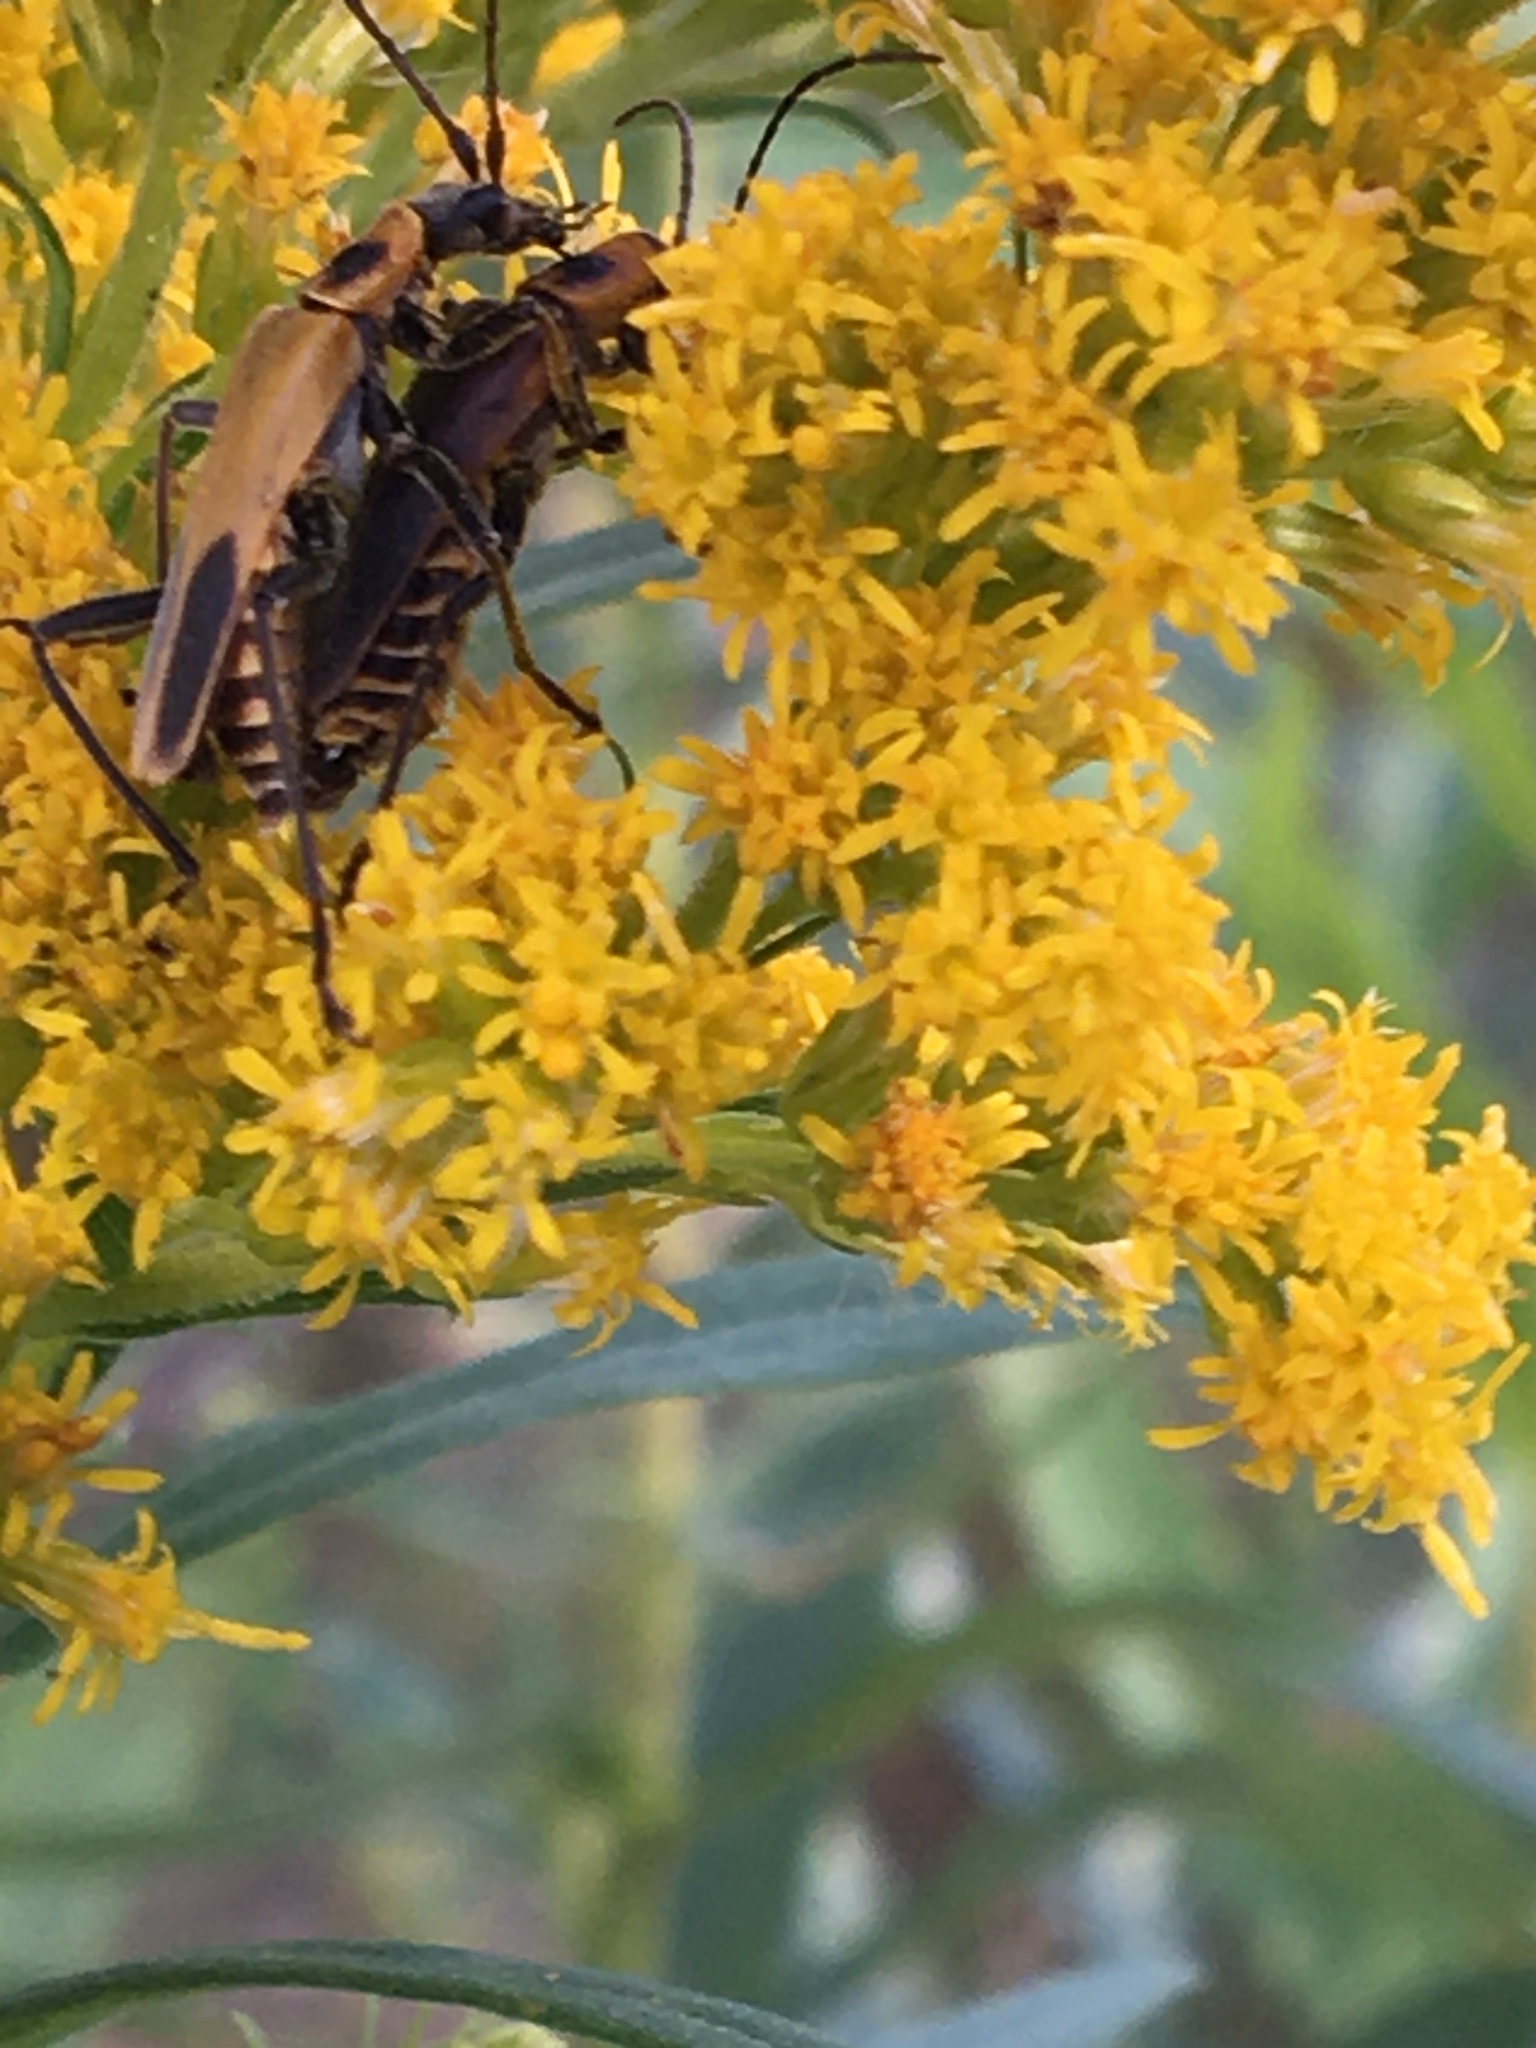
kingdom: Animalia
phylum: Arthropoda
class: Insecta
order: Coleoptera
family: Cantharidae
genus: Chauliognathus
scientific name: Chauliognathus pensylvanicus
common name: Goldenrod soldier beetle
